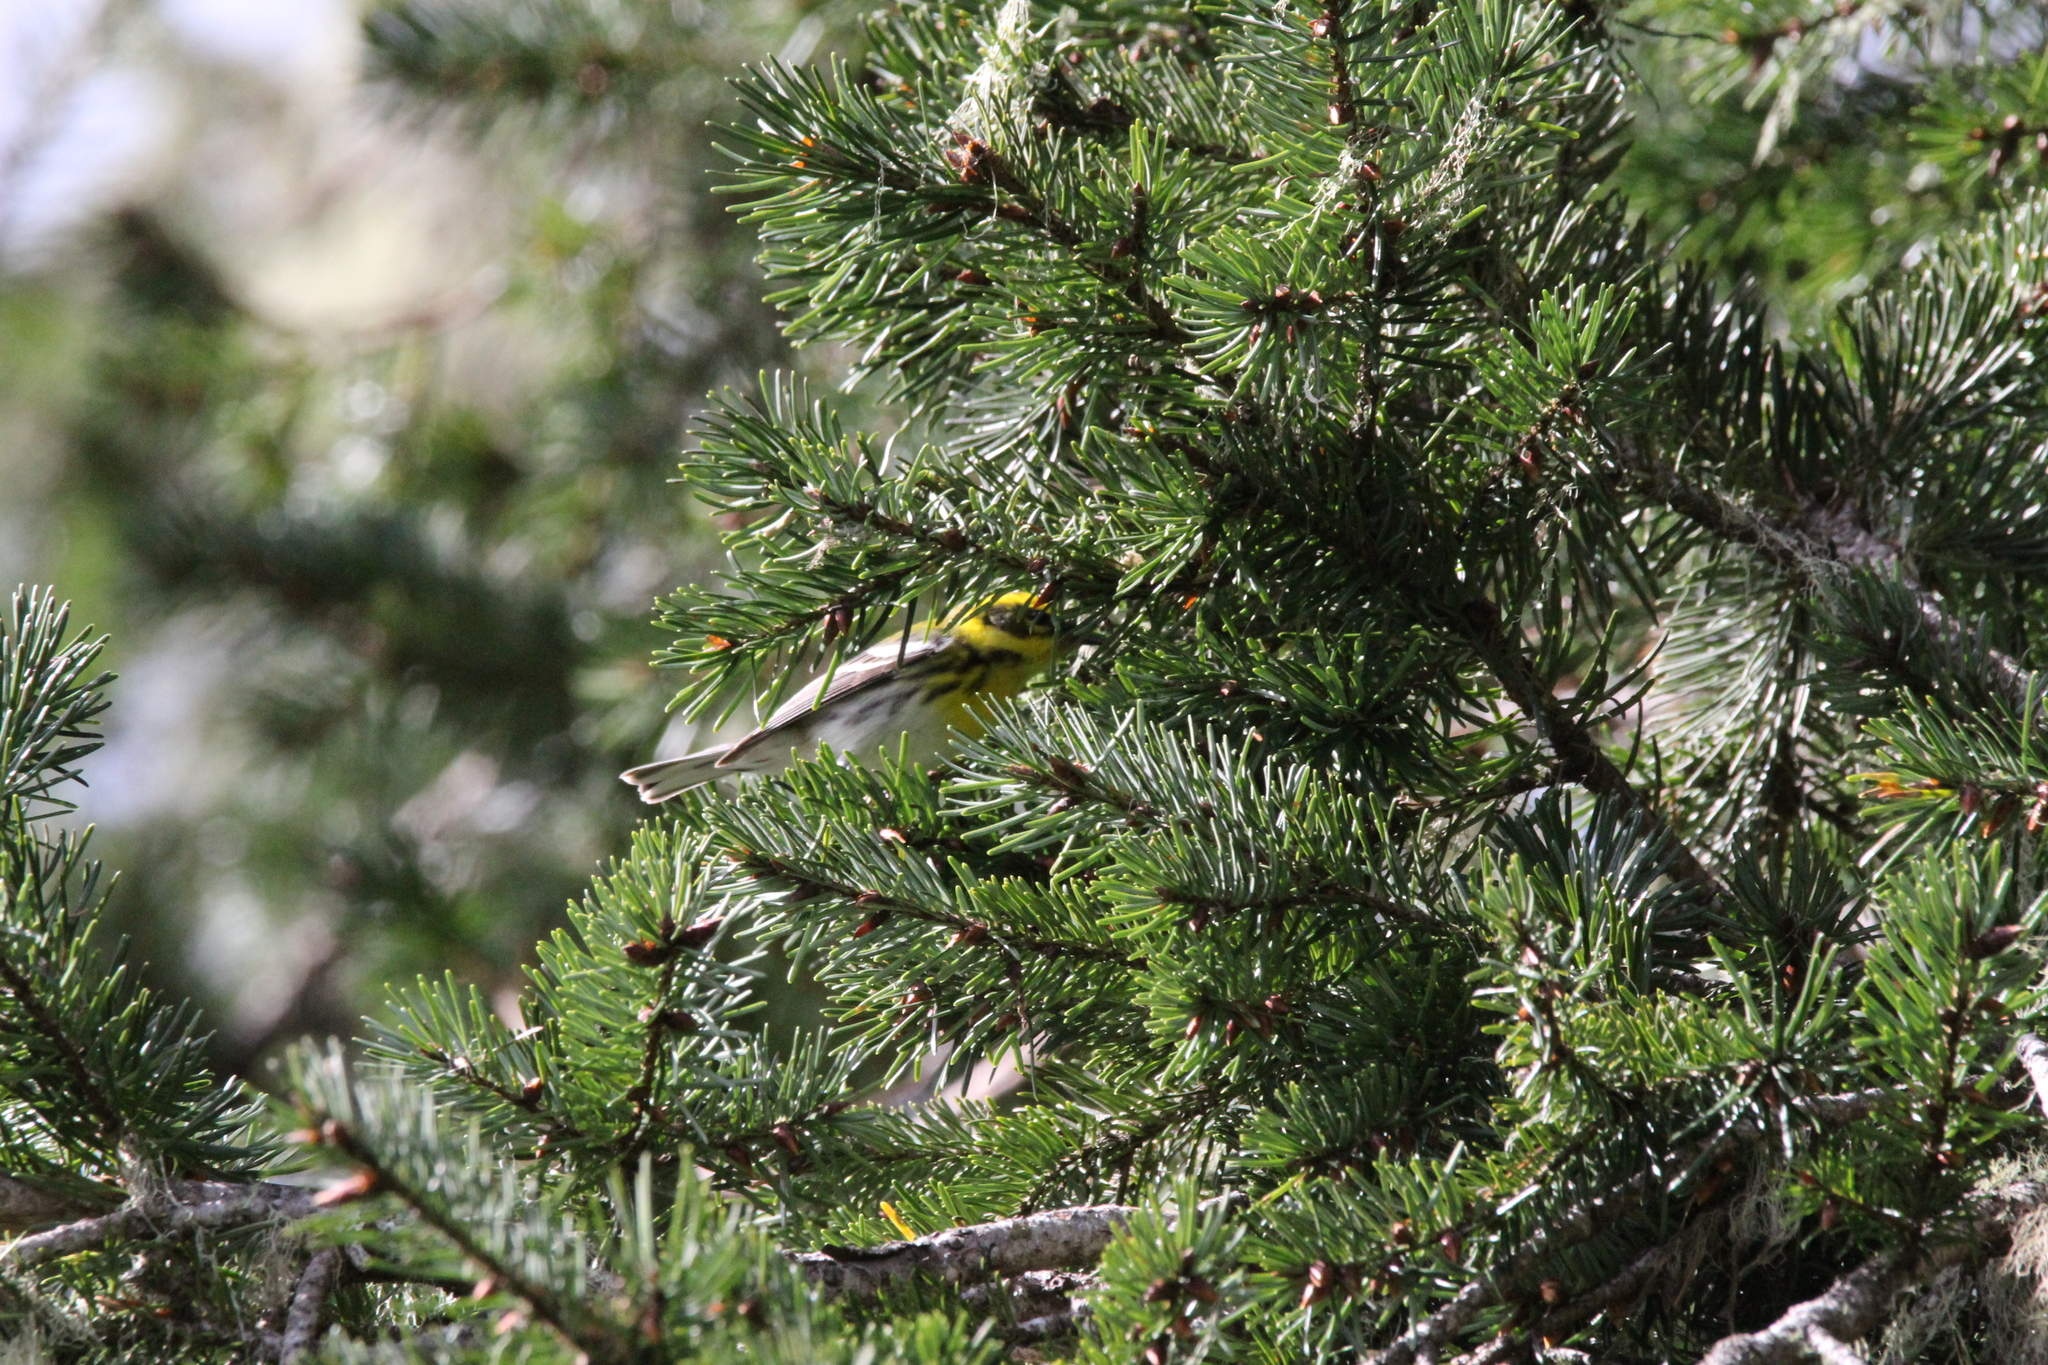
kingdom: Animalia
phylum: Chordata
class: Aves
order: Passeriformes
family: Parulidae
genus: Setophaga
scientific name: Setophaga townsendi
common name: Townsend's warbler
